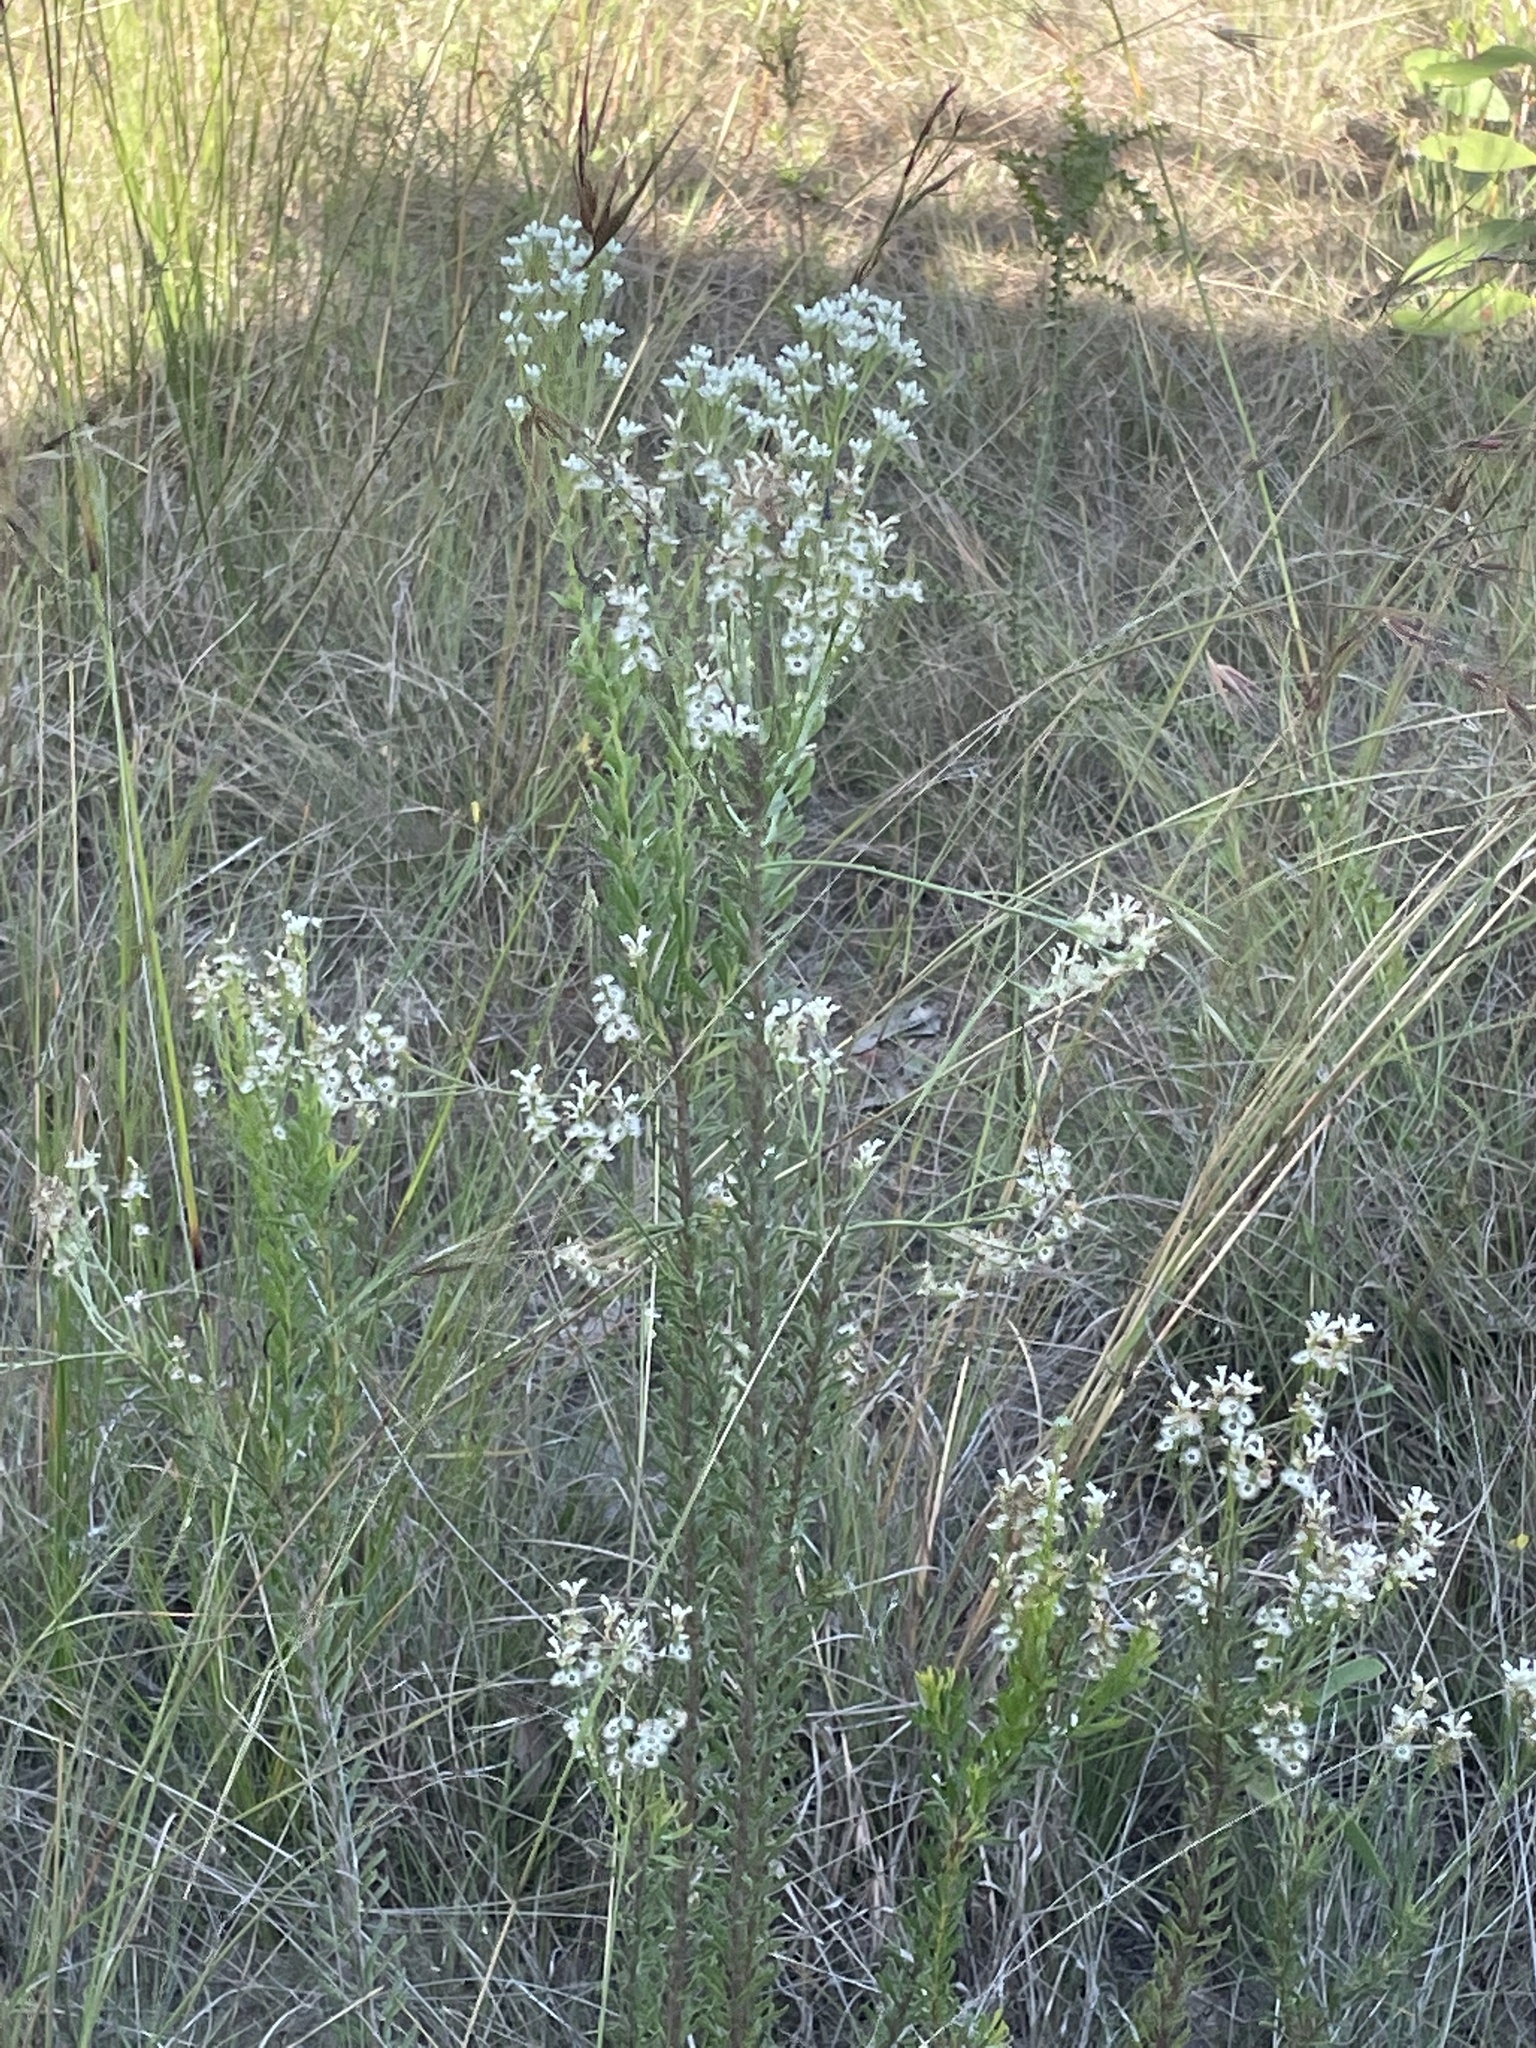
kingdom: Plantae
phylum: Tracheophyta
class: Magnoliopsida
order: Proteales
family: Proteaceae
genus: Conospermum
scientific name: Conospermum taxifolium
